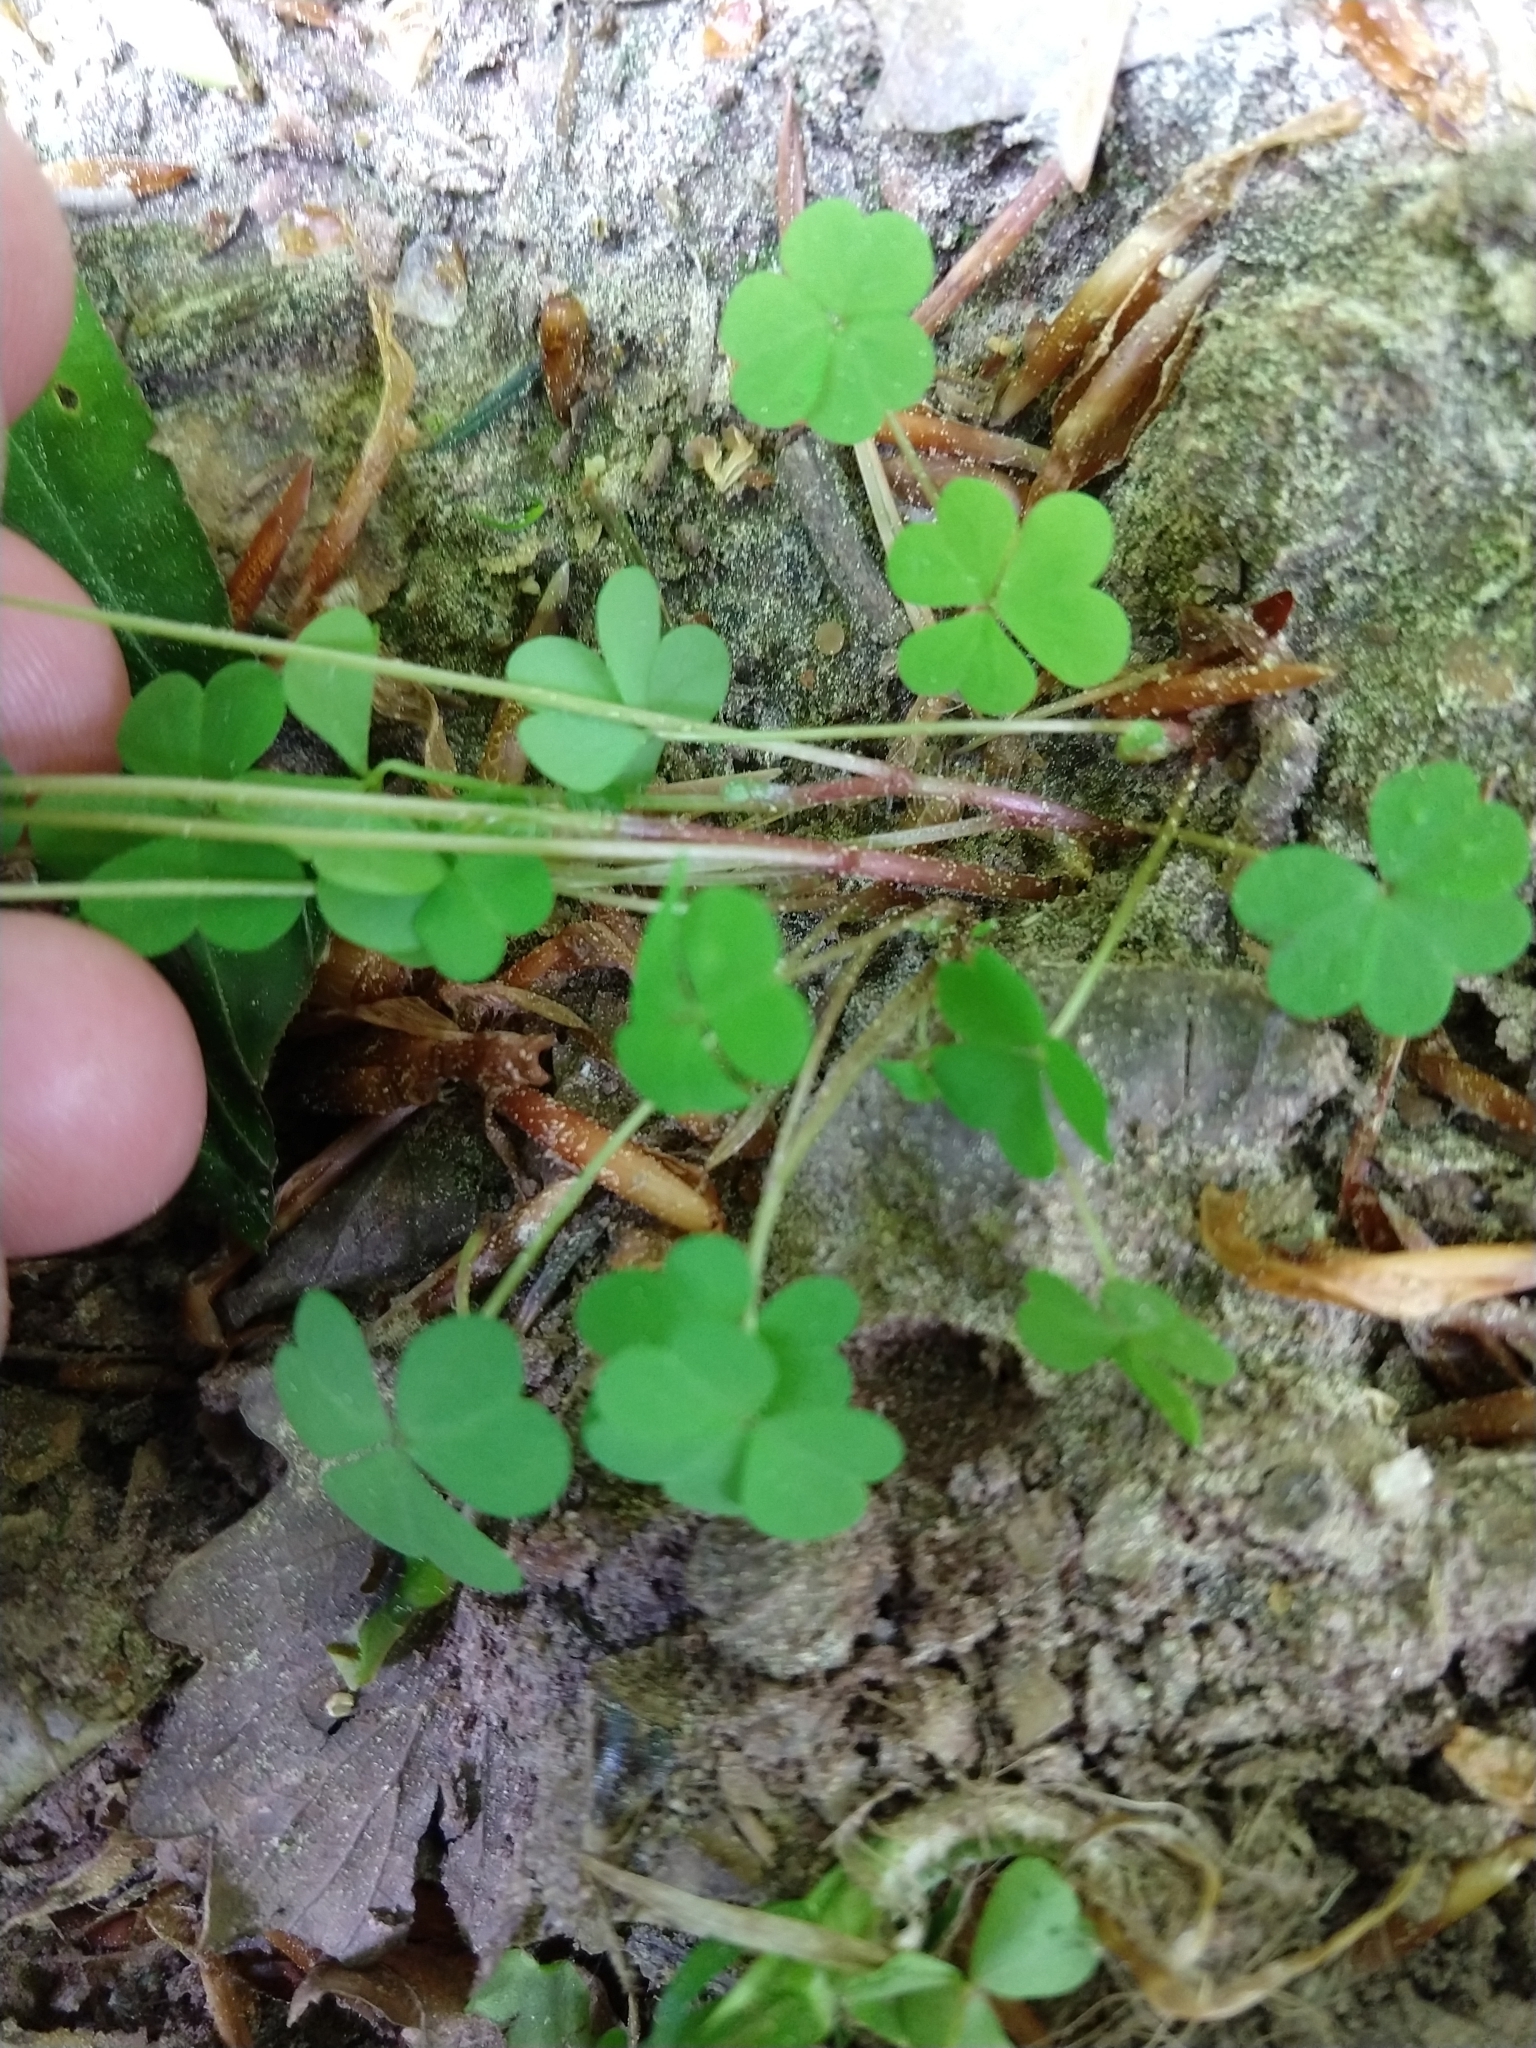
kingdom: Plantae
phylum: Tracheophyta
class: Magnoliopsida
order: Oxalidales
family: Oxalidaceae
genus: Oxalis
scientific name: Oxalis stricta
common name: Upright yellow-sorrel
